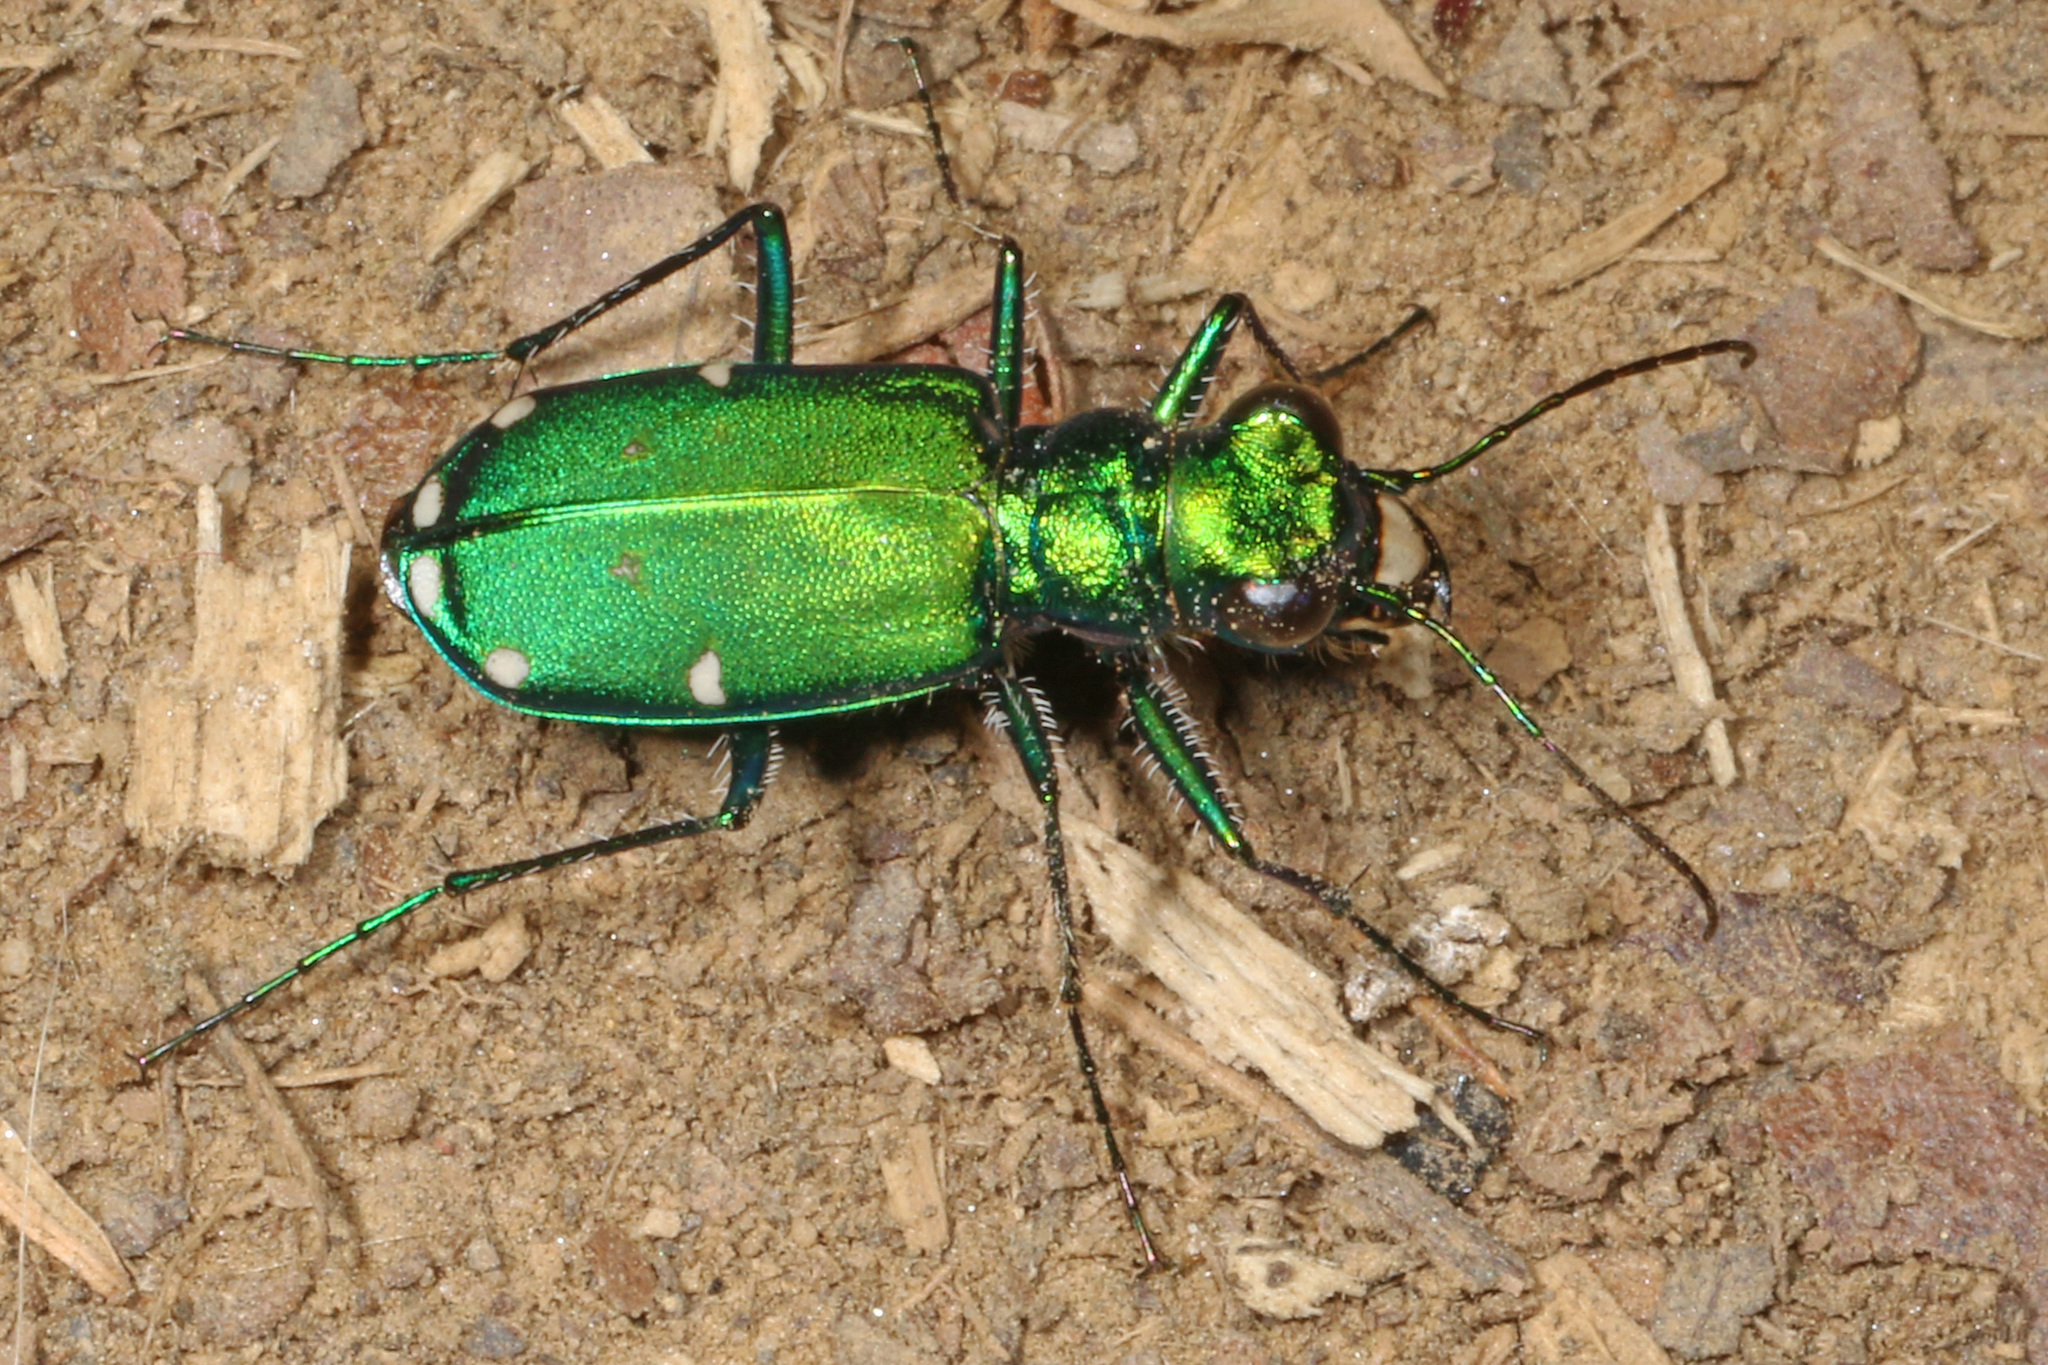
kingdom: Animalia
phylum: Arthropoda
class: Insecta
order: Coleoptera
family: Carabidae
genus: Cicindela
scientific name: Cicindela sexguttata
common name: Six-spotted tiger beetle
